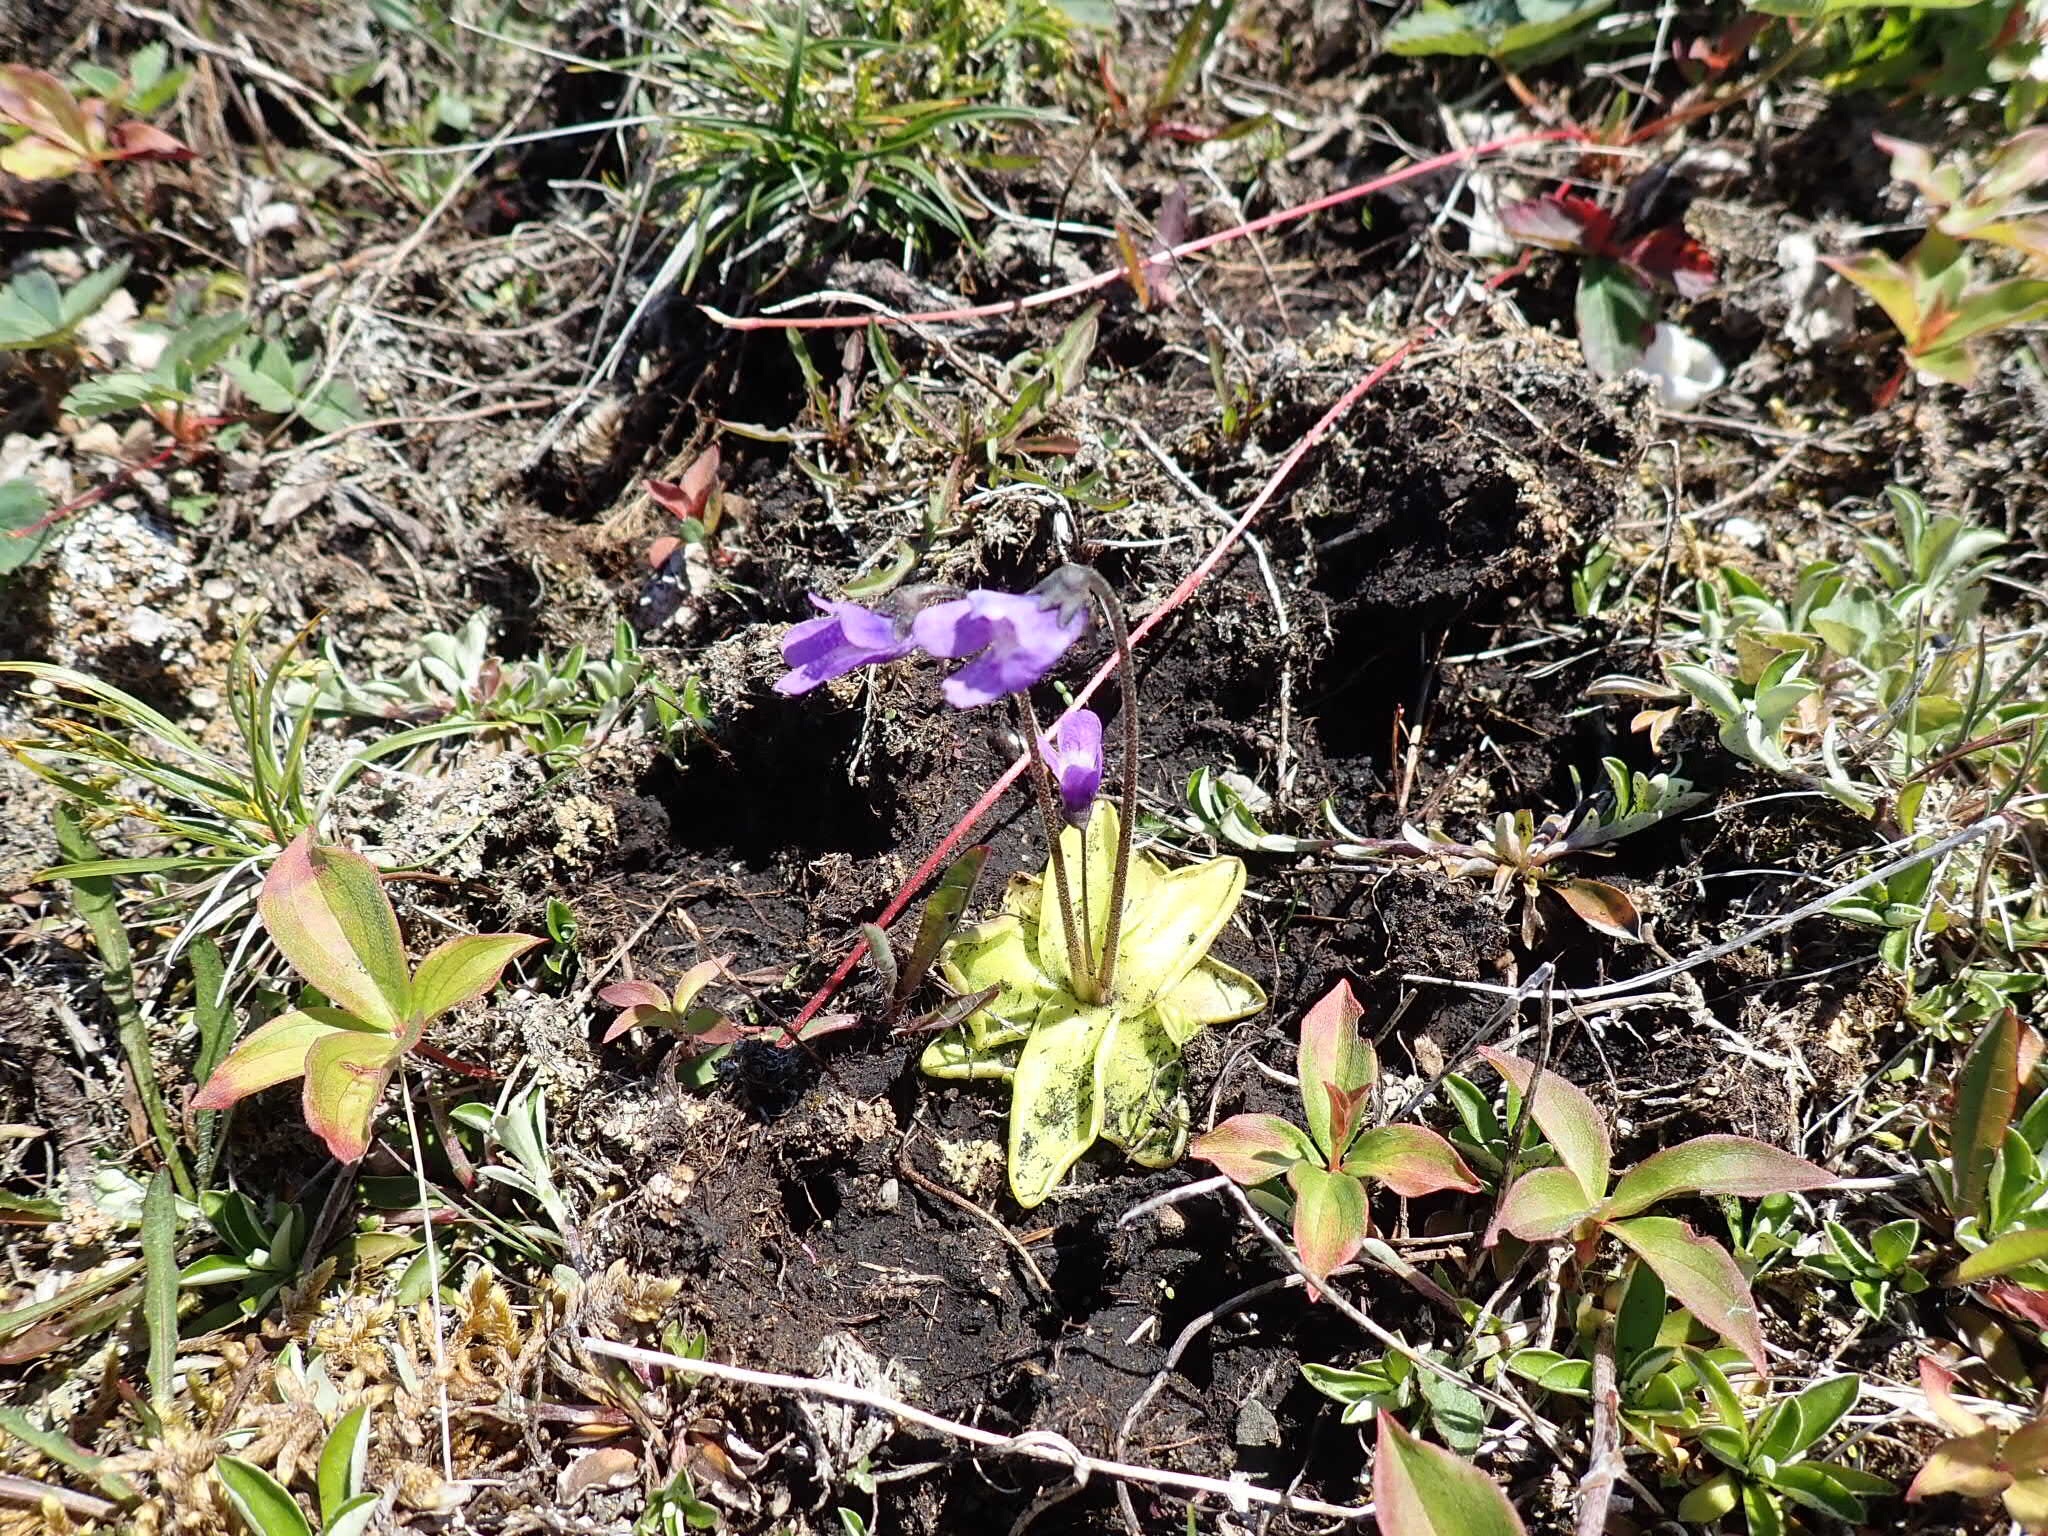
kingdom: Plantae
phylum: Tracheophyta
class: Magnoliopsida
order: Lamiales
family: Lentibulariaceae
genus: Pinguicula
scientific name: Pinguicula vulgaris
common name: Common butterwort
